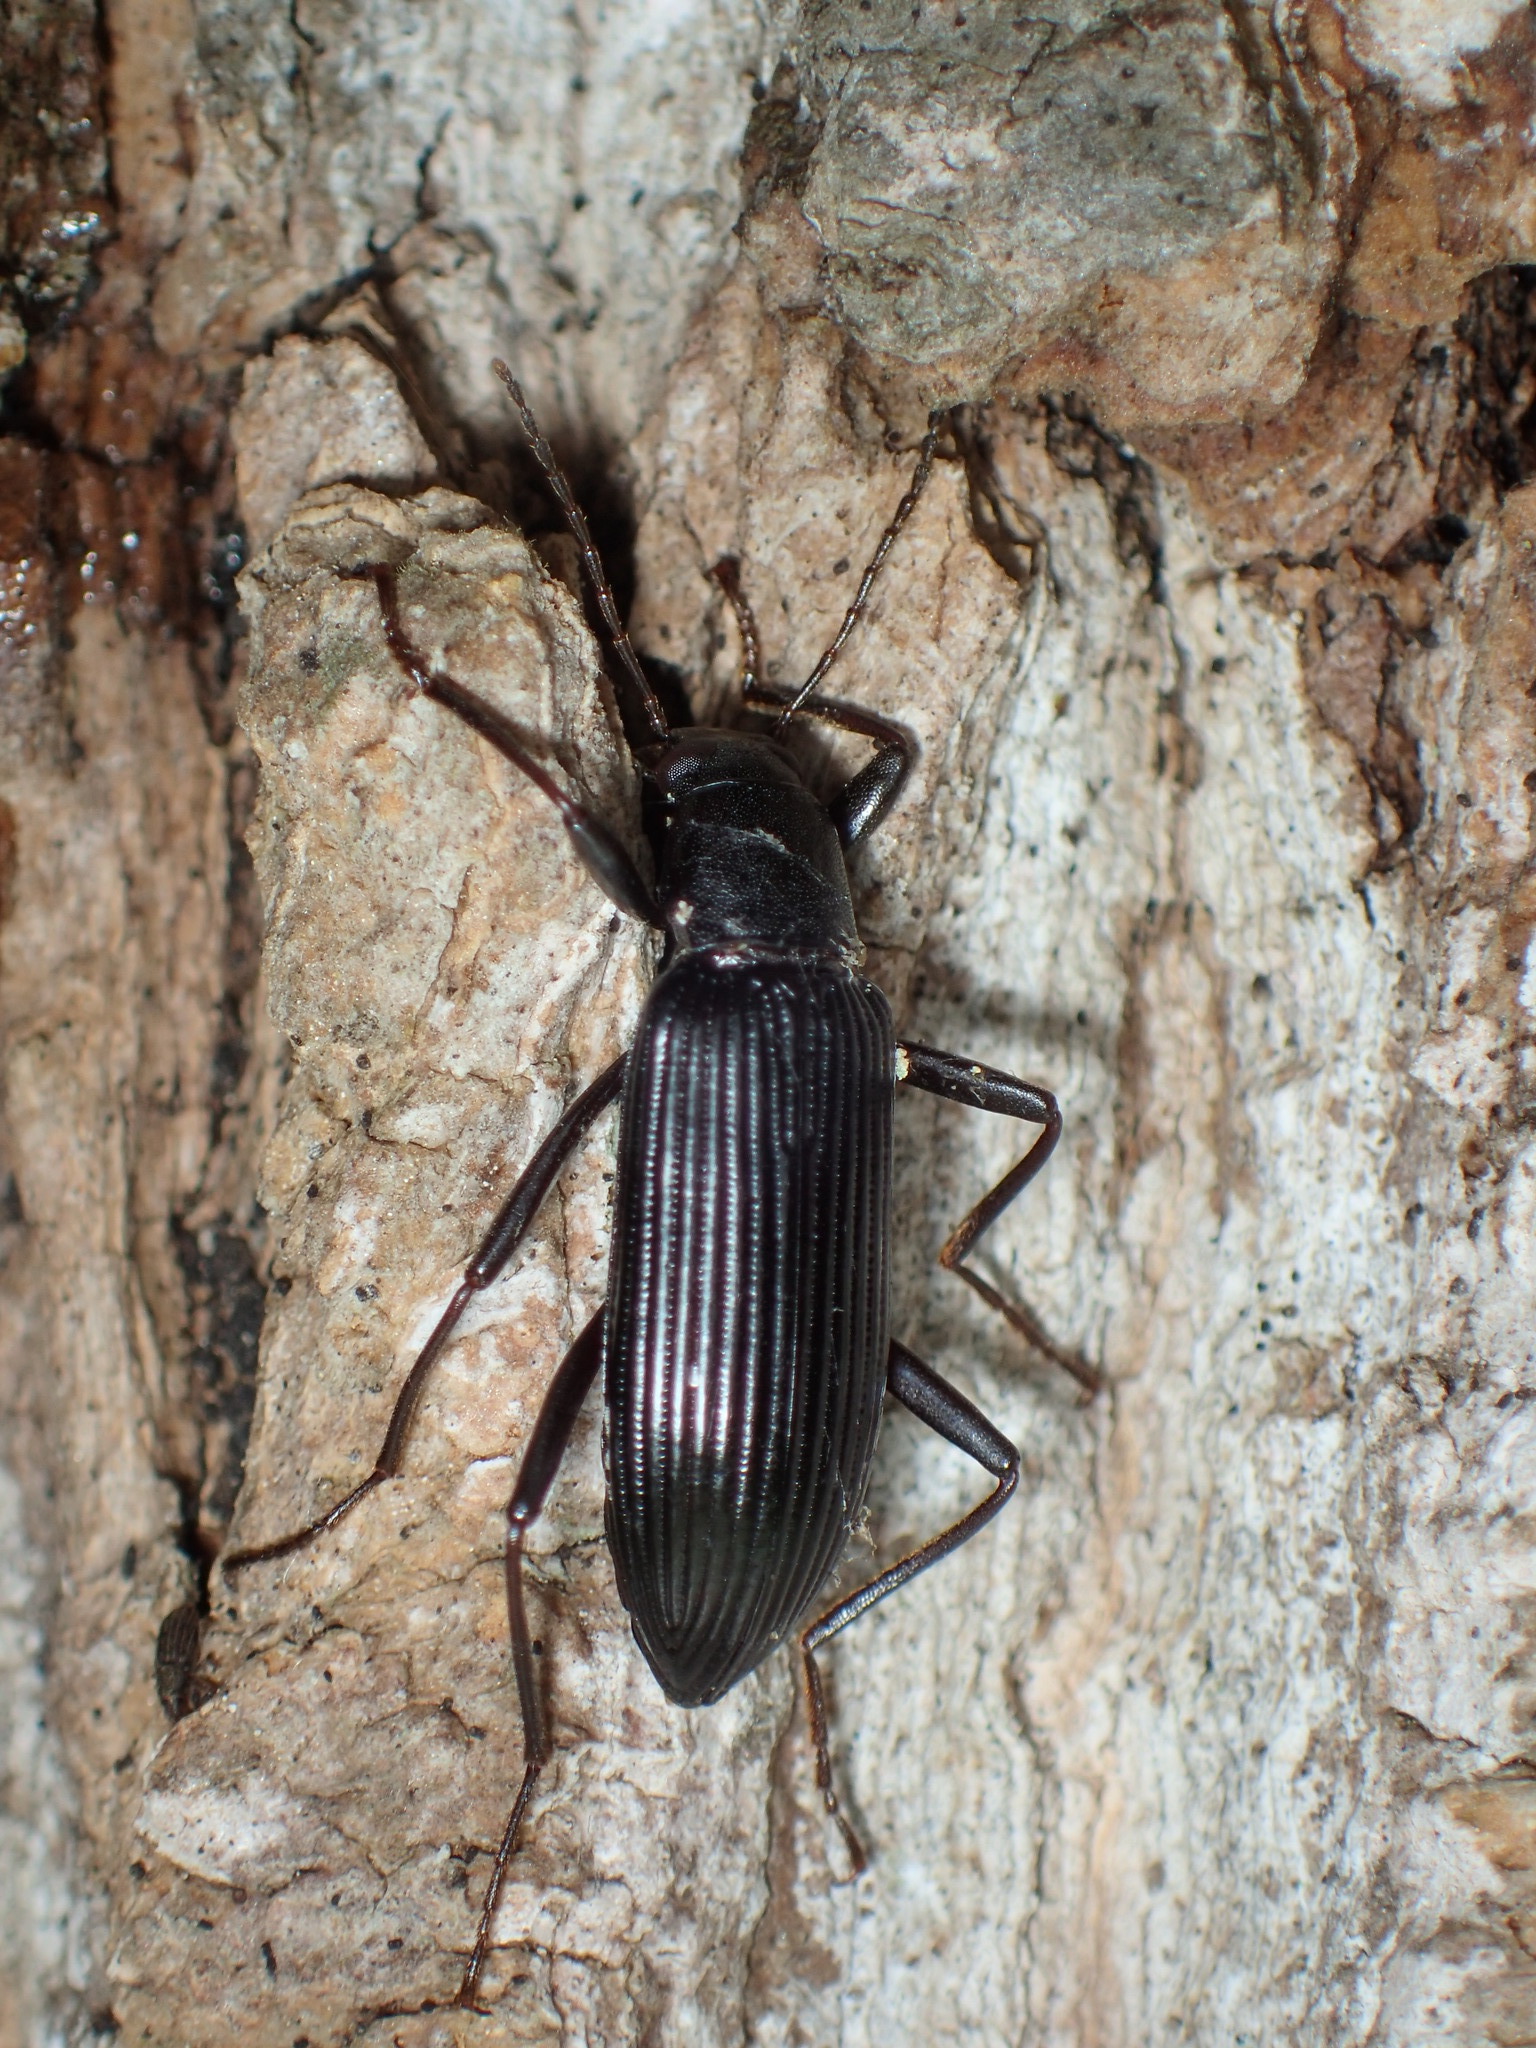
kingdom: Animalia
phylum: Arthropoda
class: Insecta
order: Coleoptera
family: Tenebrionidae
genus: Strongylium
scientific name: Strongylium tenuicolle
